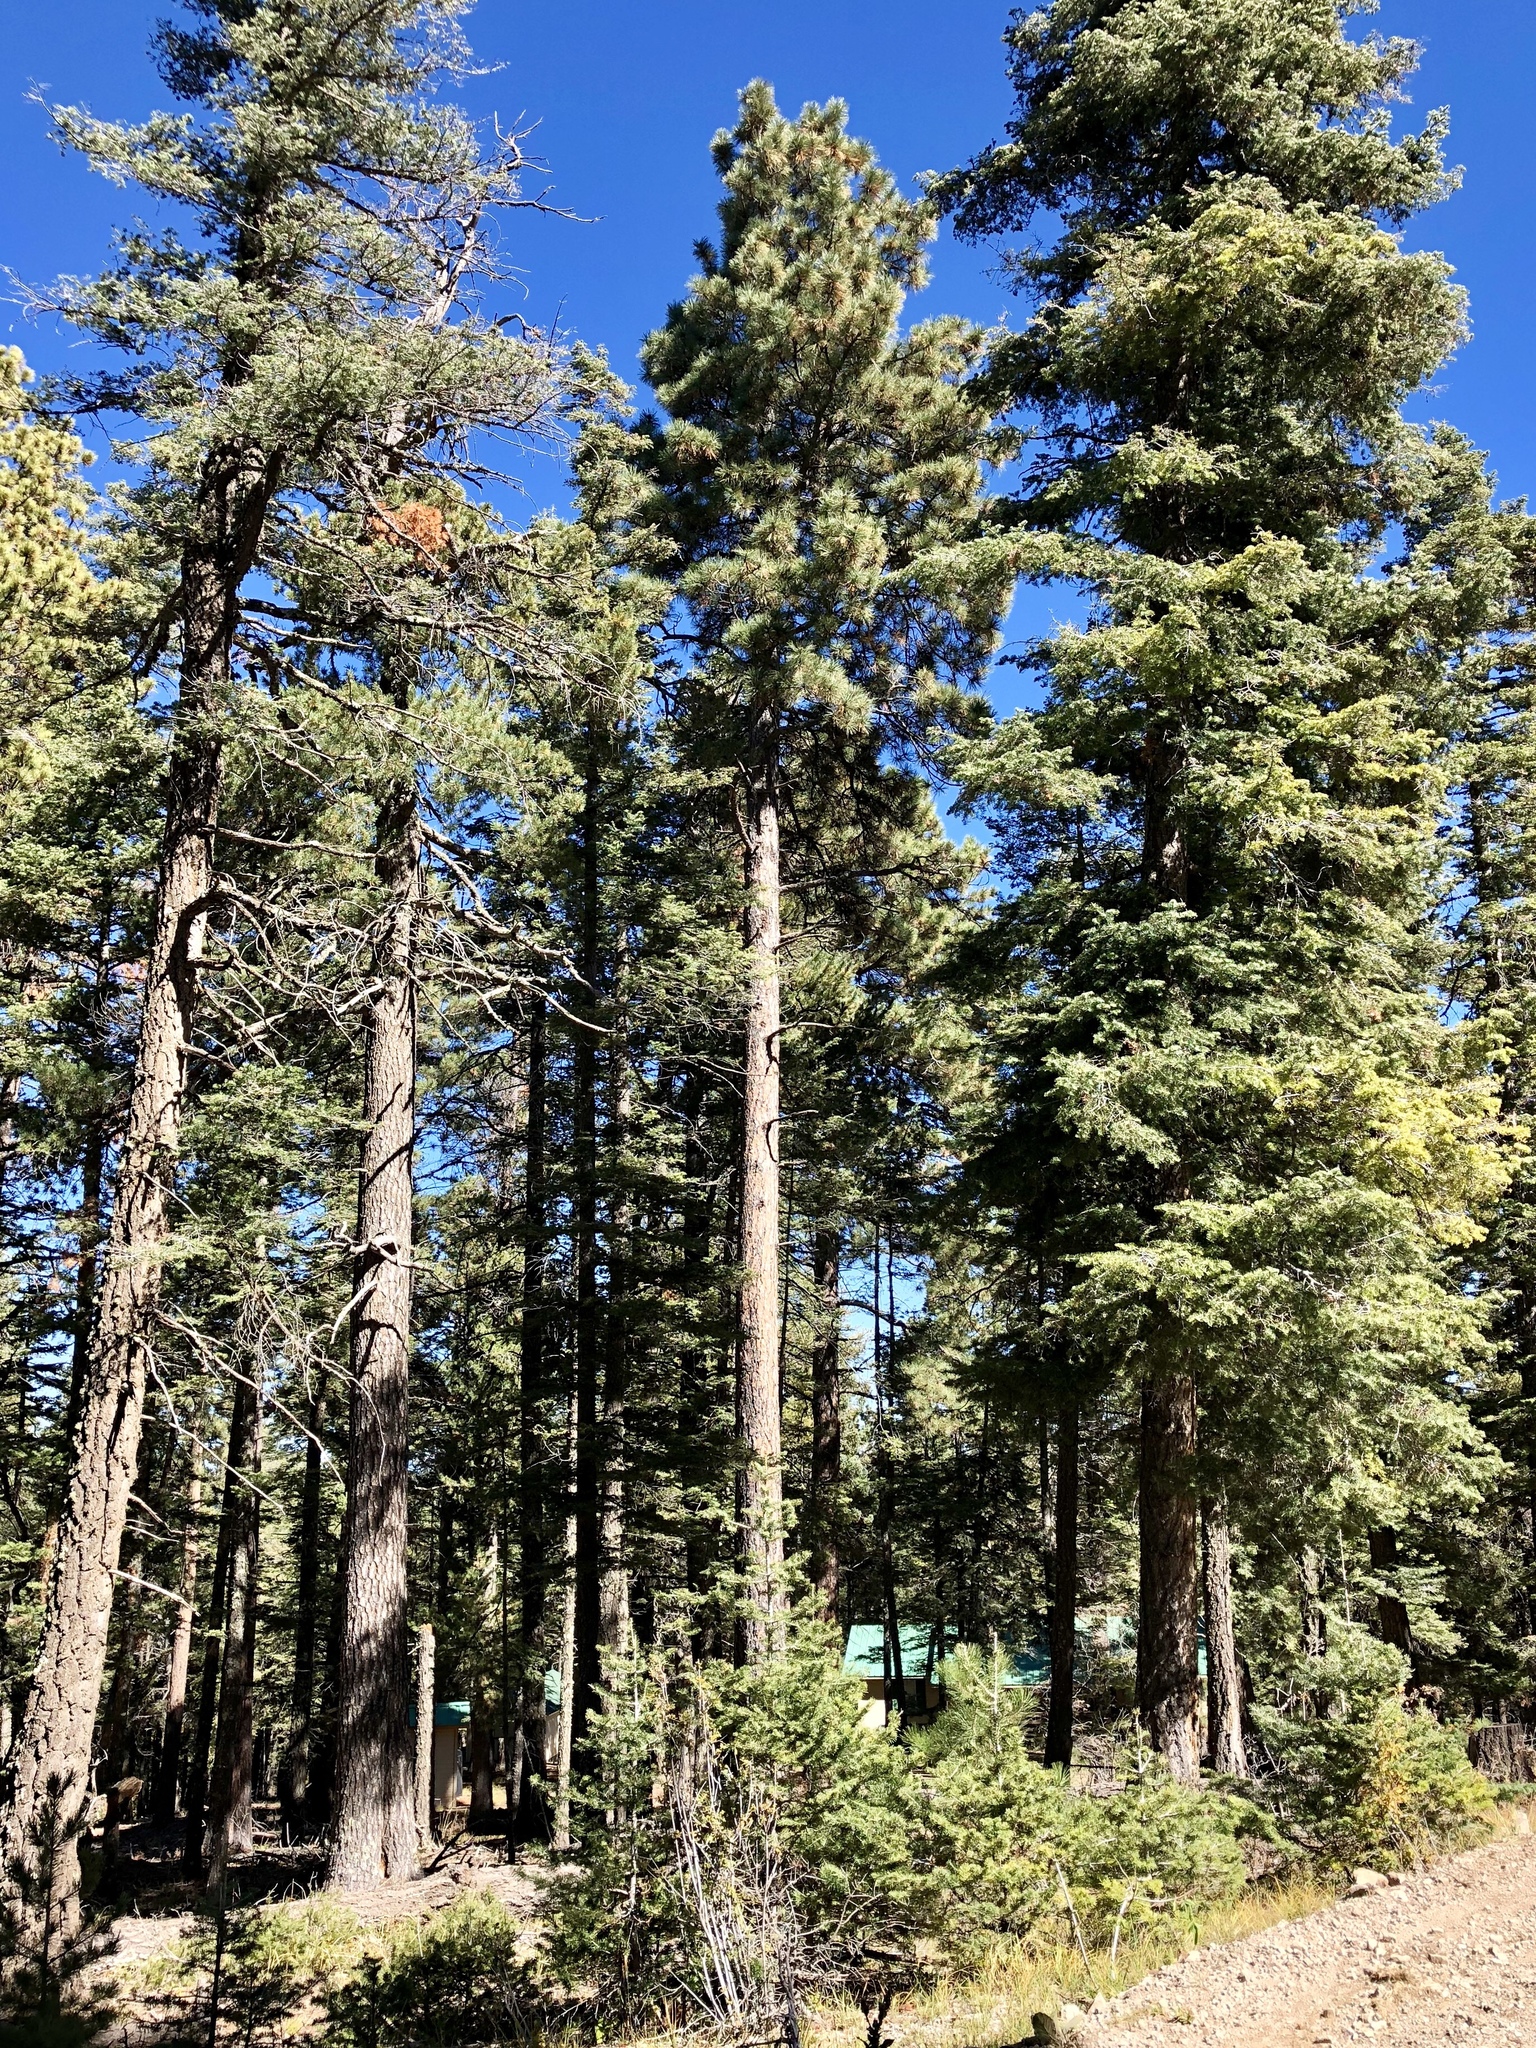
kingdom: Plantae
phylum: Tracheophyta
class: Pinopsida
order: Pinales
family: Pinaceae
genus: Pinus
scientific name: Pinus ponderosa
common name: Western yellow-pine
